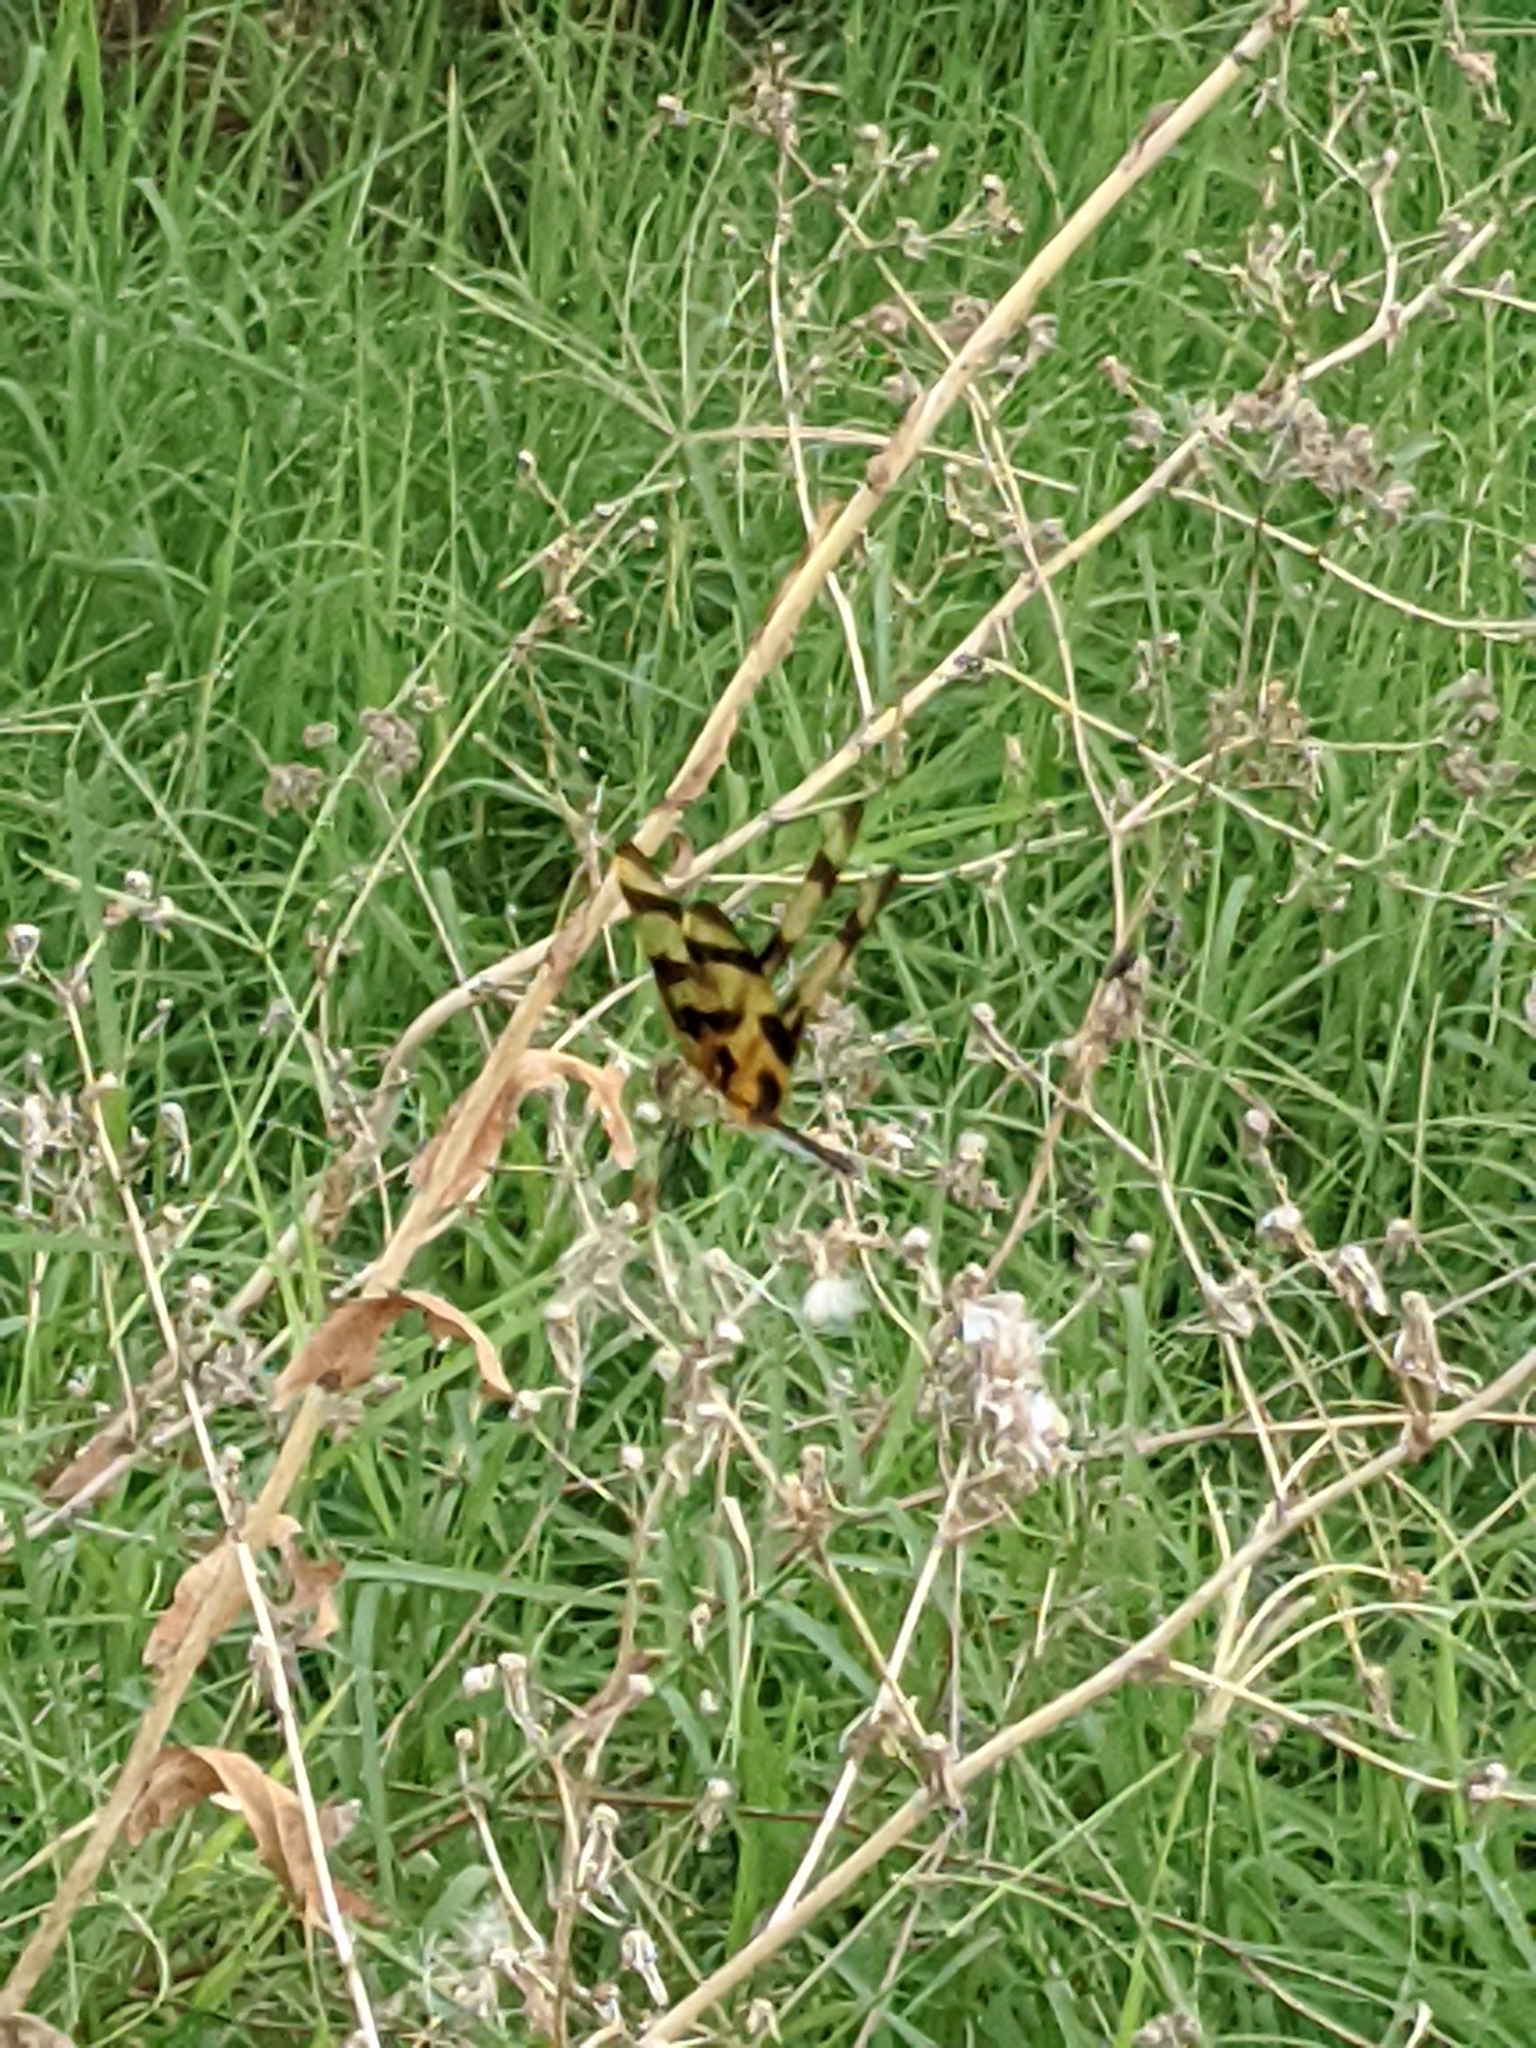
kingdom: Animalia
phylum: Arthropoda
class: Insecta
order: Odonata
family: Libellulidae
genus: Celithemis
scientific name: Celithemis eponina
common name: Halloween pennant
